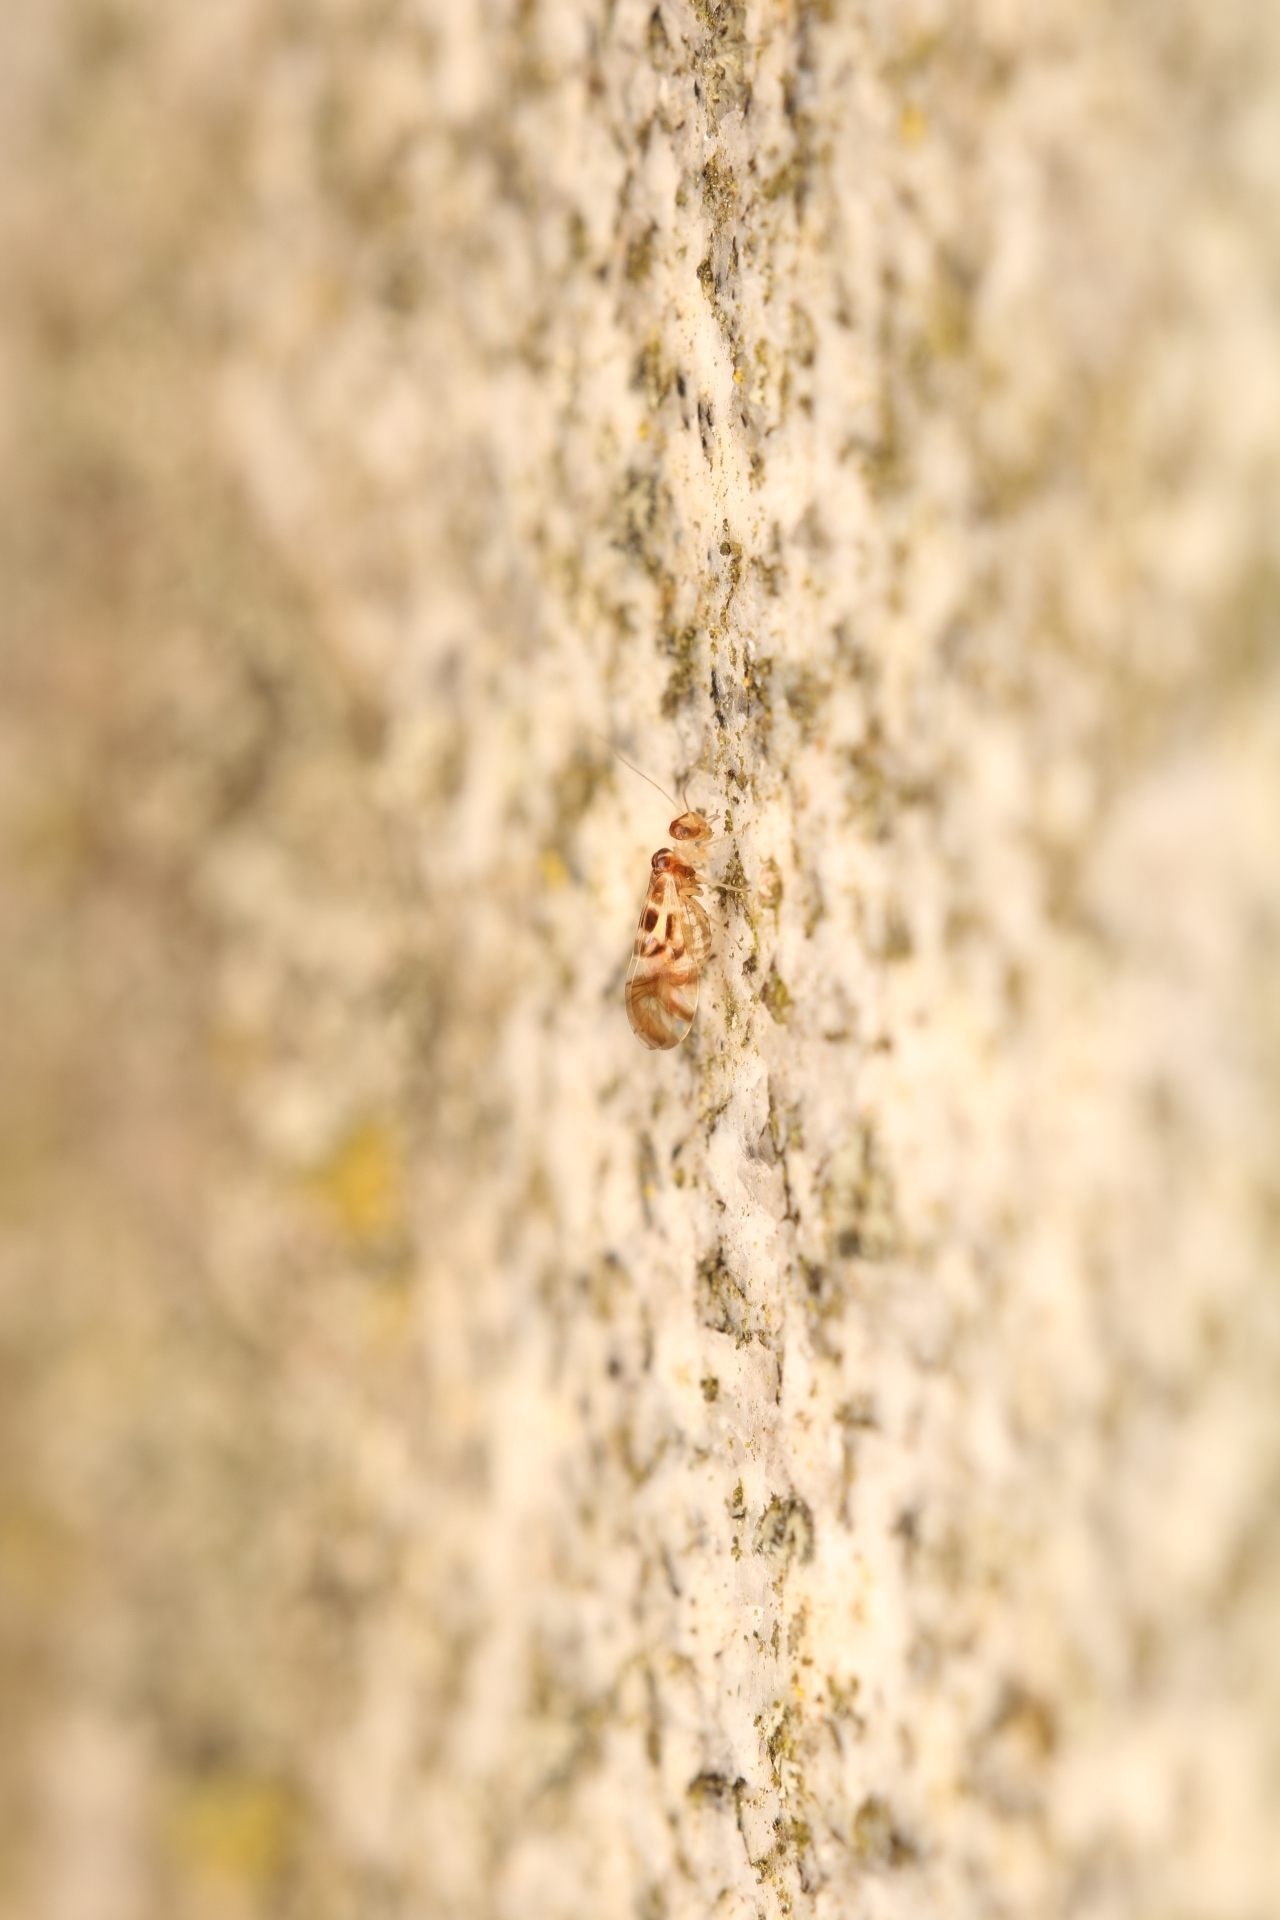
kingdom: Animalia
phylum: Arthropoda
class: Insecta
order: Psocodea
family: Stenopsocidae
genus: Graphopsocus
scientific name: Graphopsocus cruciatus
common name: Lizard bark louse
